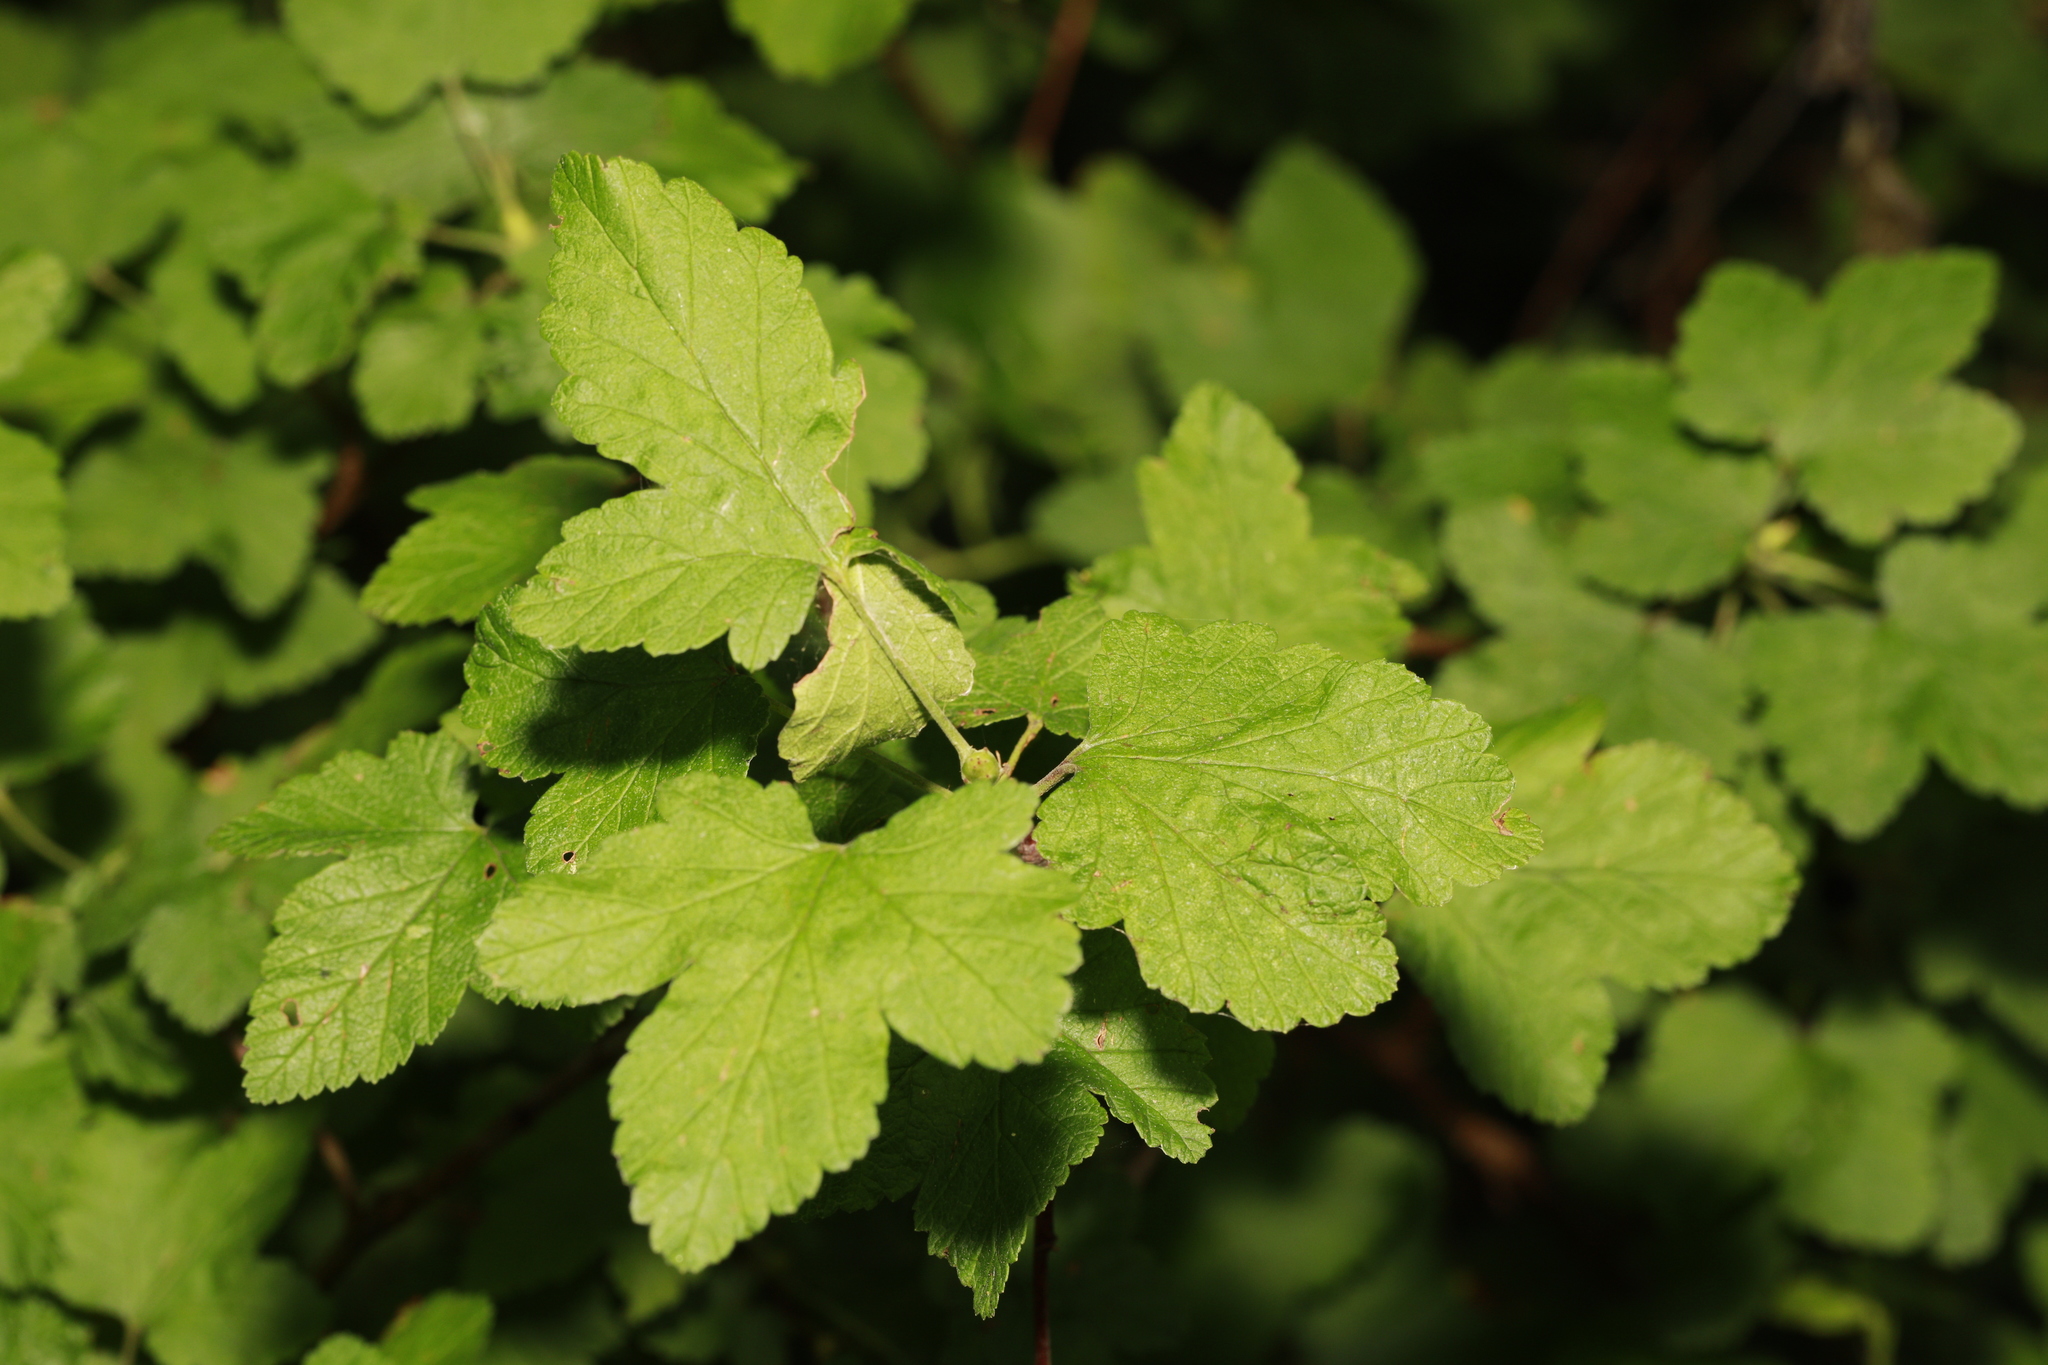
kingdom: Plantae
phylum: Tracheophyta
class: Magnoliopsida
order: Saxifragales
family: Grossulariaceae
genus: Ribes
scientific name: Ribes nigrum
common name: Black currant
